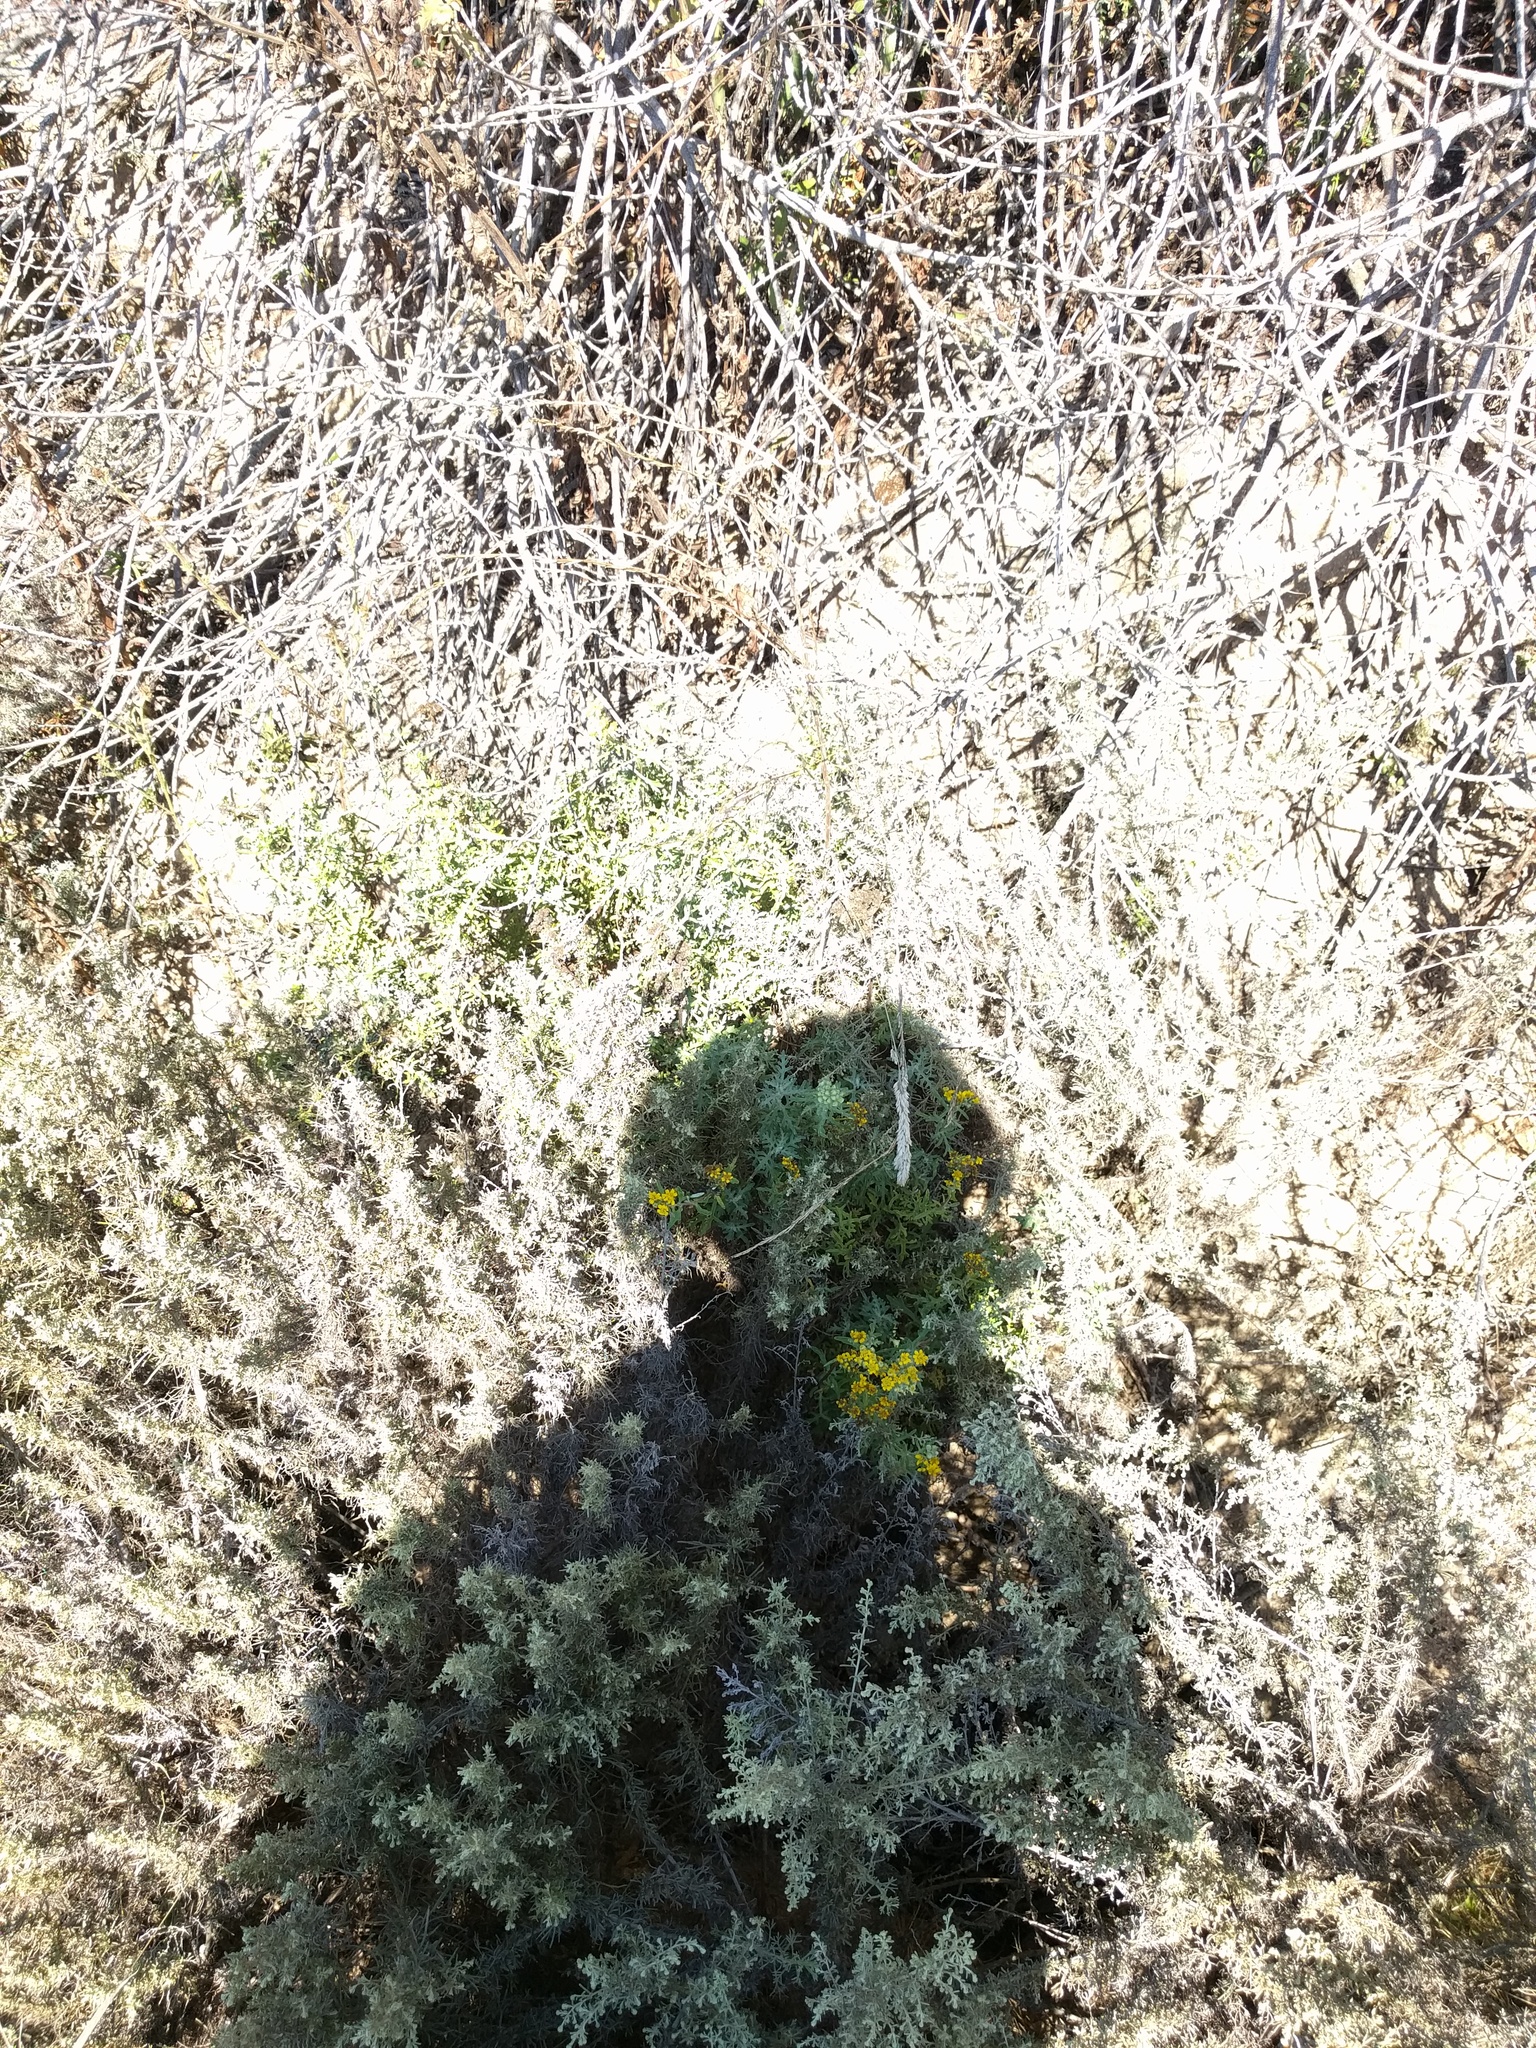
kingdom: Plantae
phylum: Tracheophyta
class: Magnoliopsida
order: Asterales
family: Asteraceae
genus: Eriophyllum
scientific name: Eriophyllum staechadifolium
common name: Lizardtail
